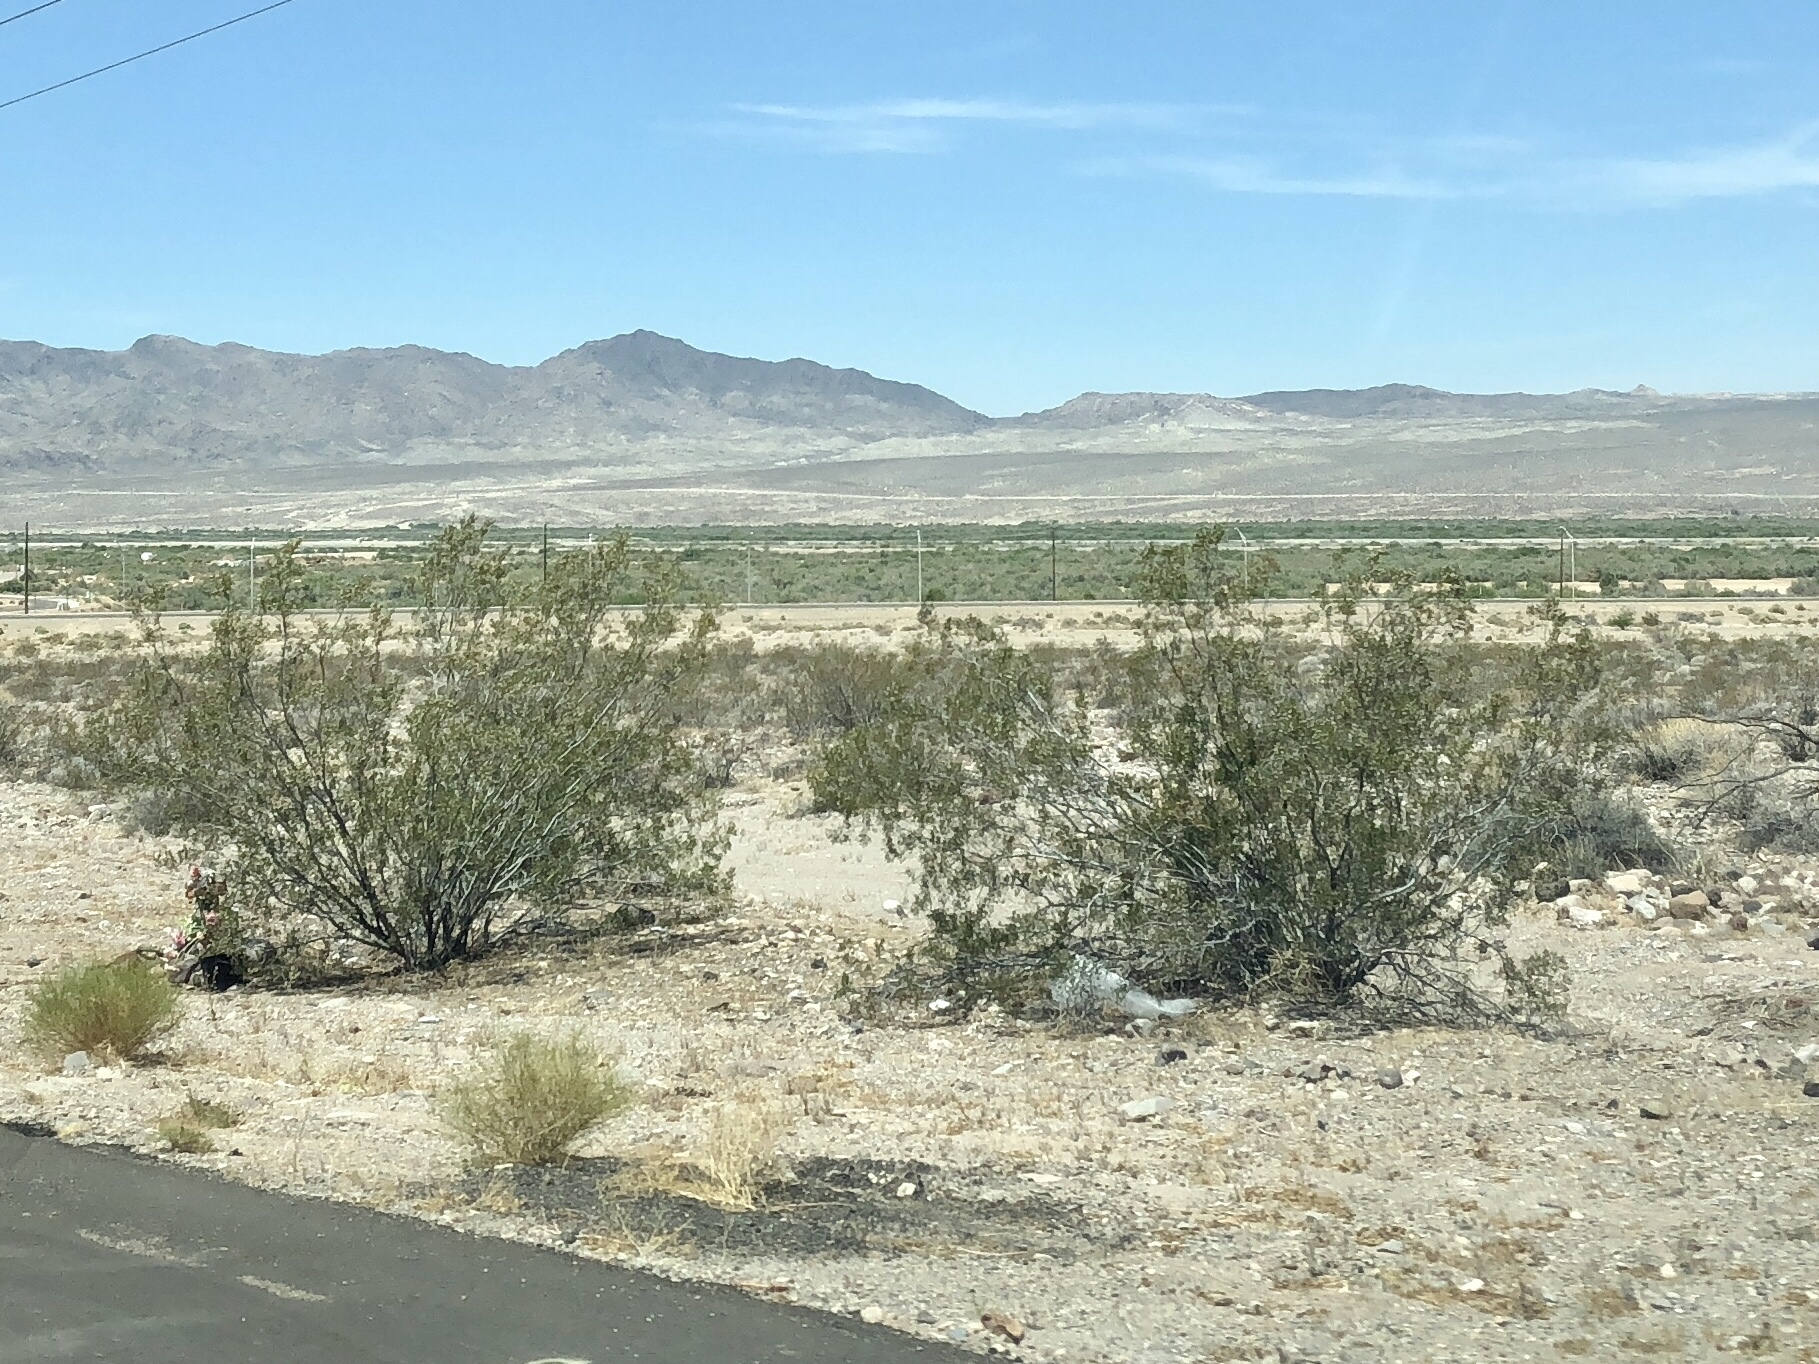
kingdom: Plantae
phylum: Tracheophyta
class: Magnoliopsida
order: Zygophyllales
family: Zygophyllaceae
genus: Larrea
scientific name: Larrea tridentata
